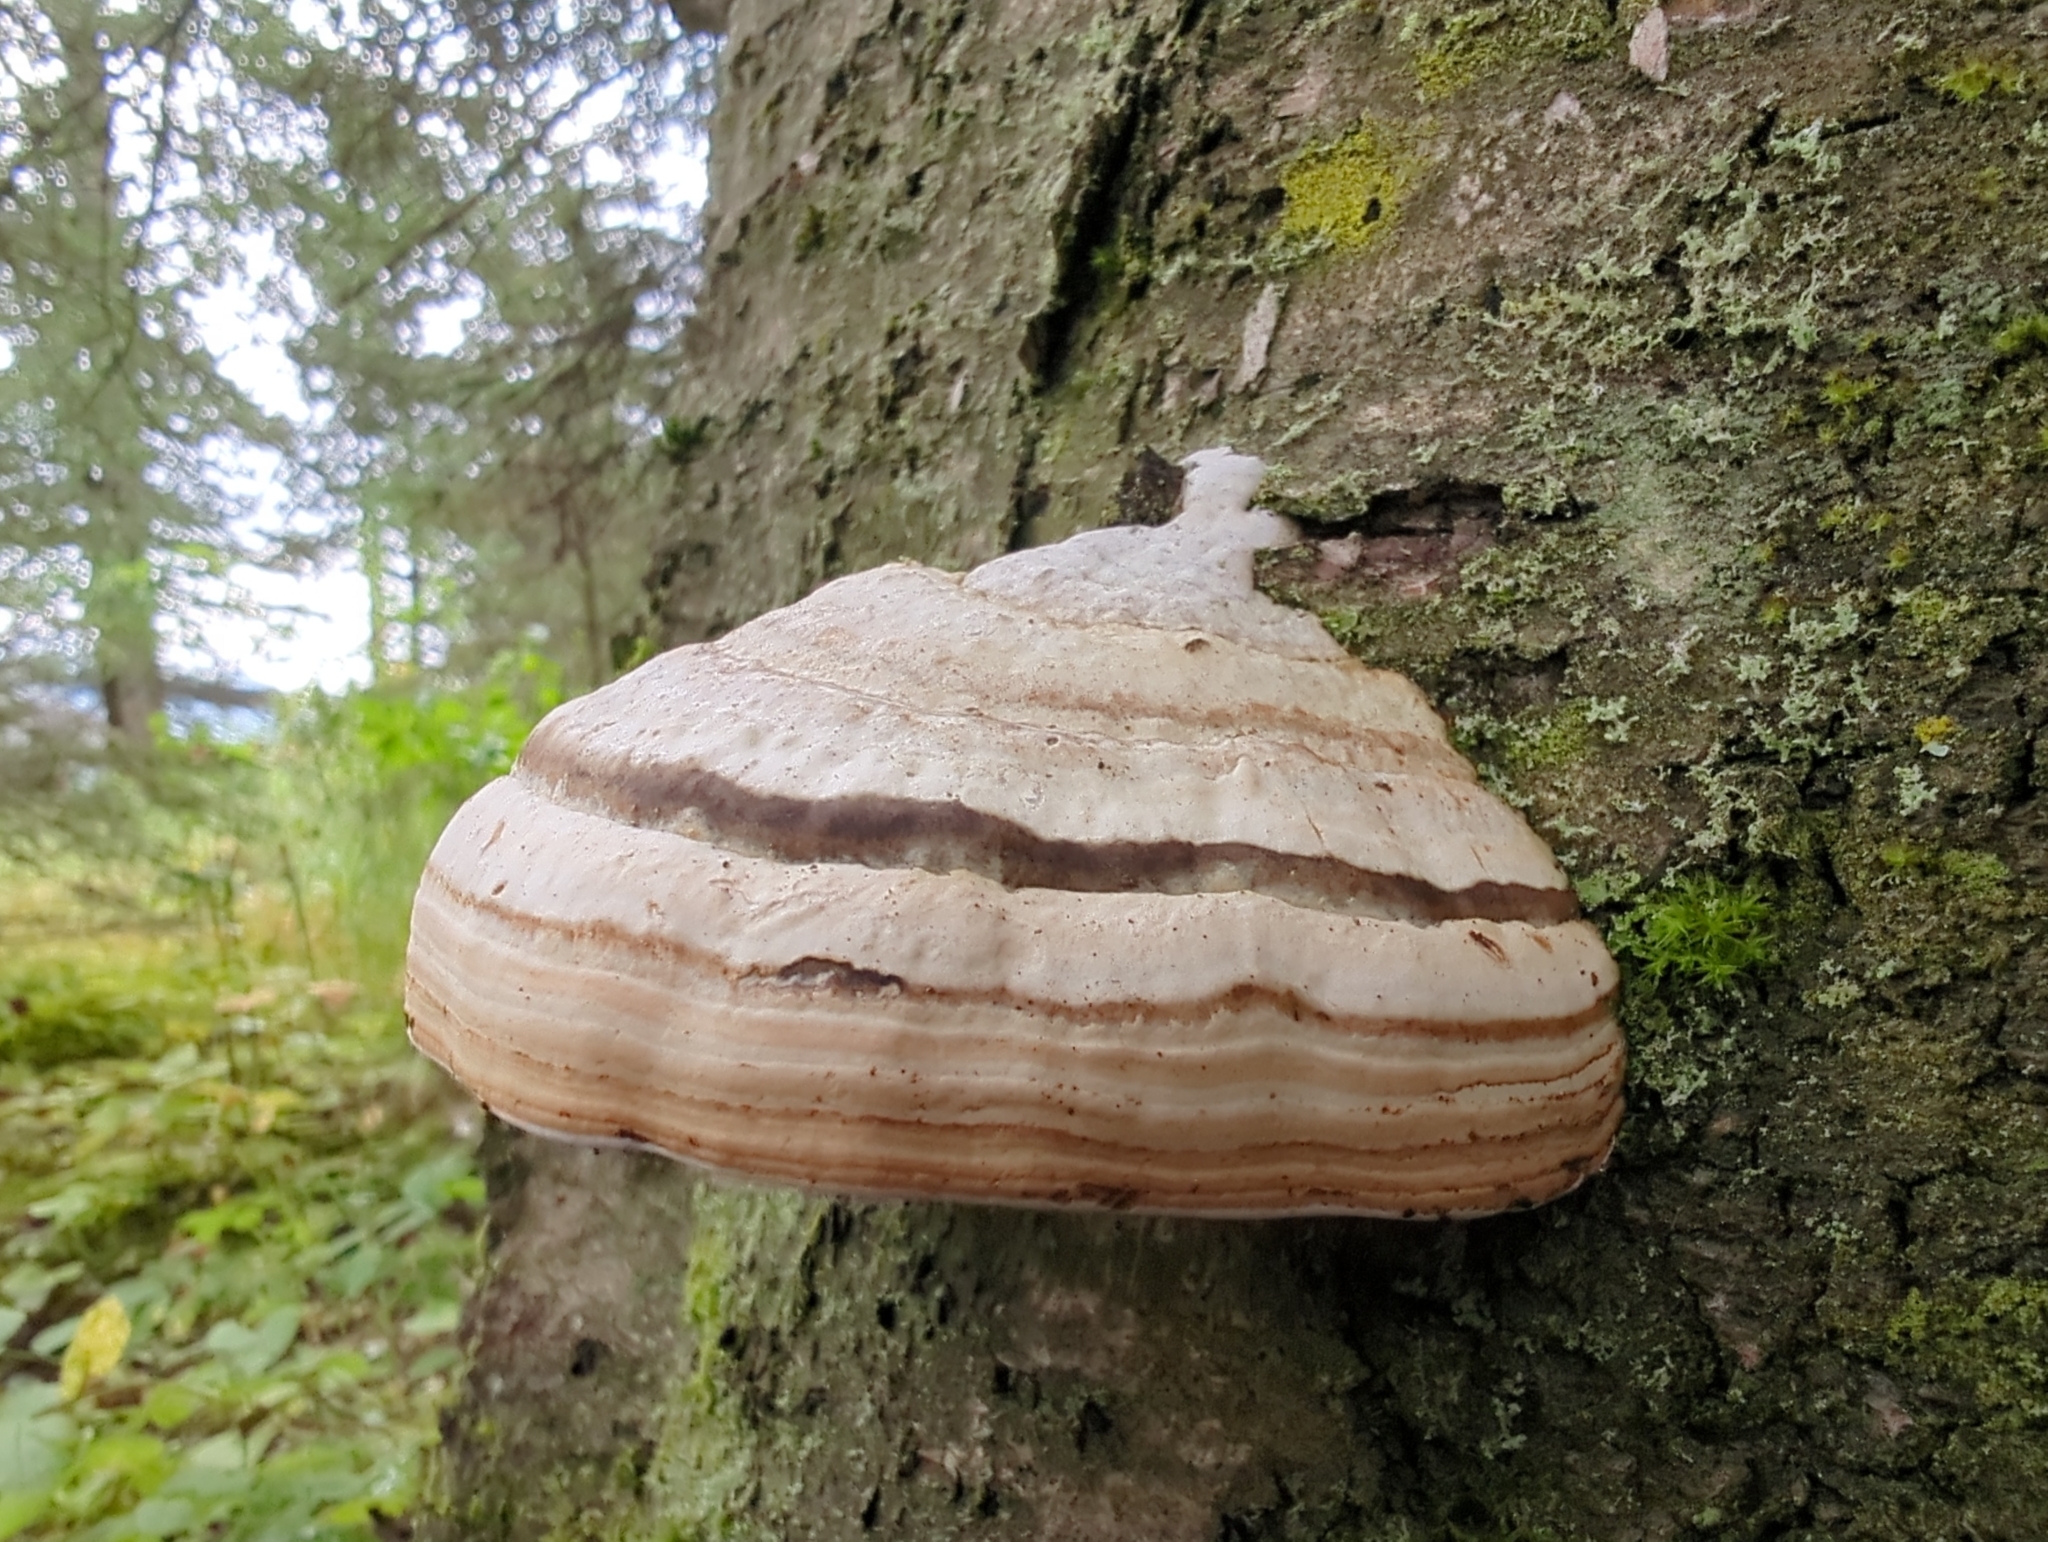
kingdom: Fungi
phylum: Basidiomycota
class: Agaricomycetes
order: Polyporales
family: Polyporaceae
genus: Fomes
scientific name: Fomes fomentarius
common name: Hoof fungus
